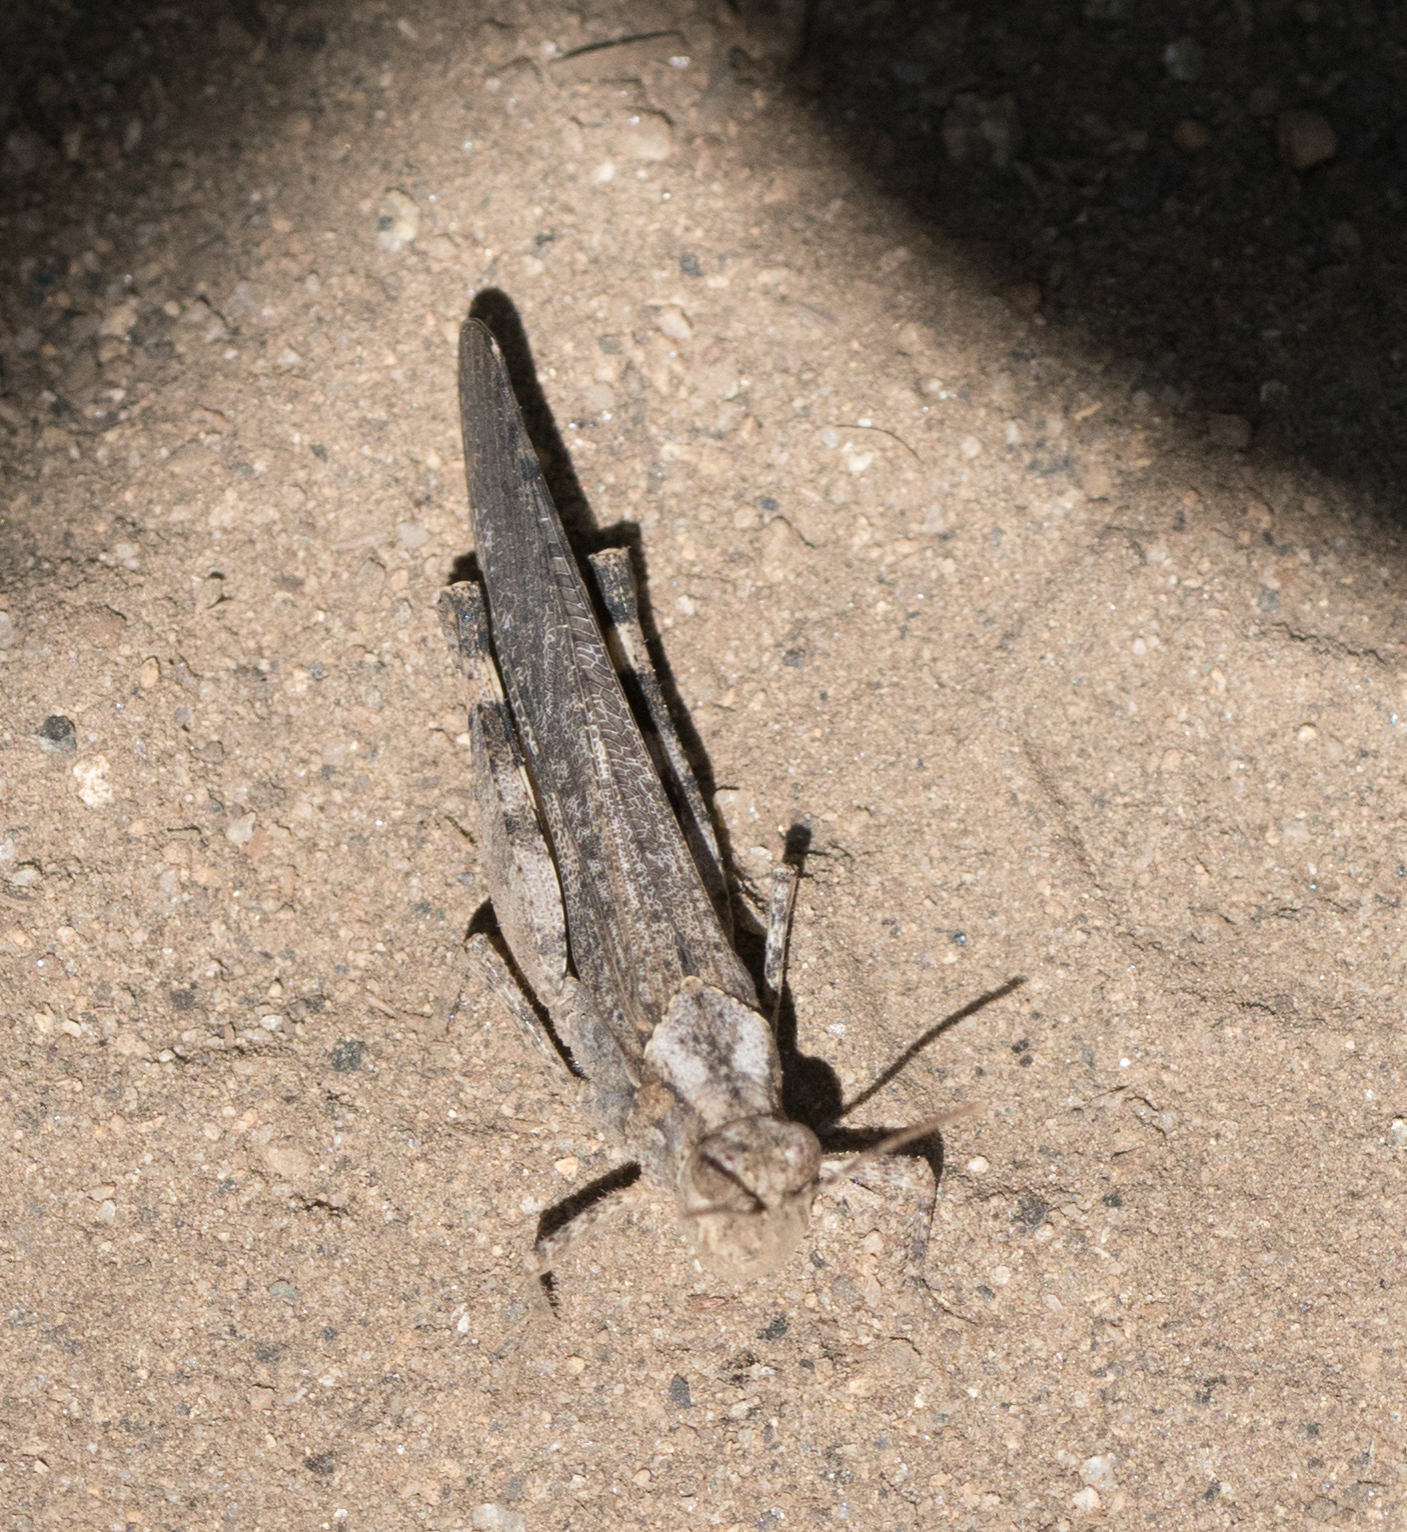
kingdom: Animalia
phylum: Arthropoda
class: Insecta
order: Orthoptera
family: Acrididae
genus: Trimerotropis
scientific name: Trimerotropis verruculata
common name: Crackling forest grasshopper
